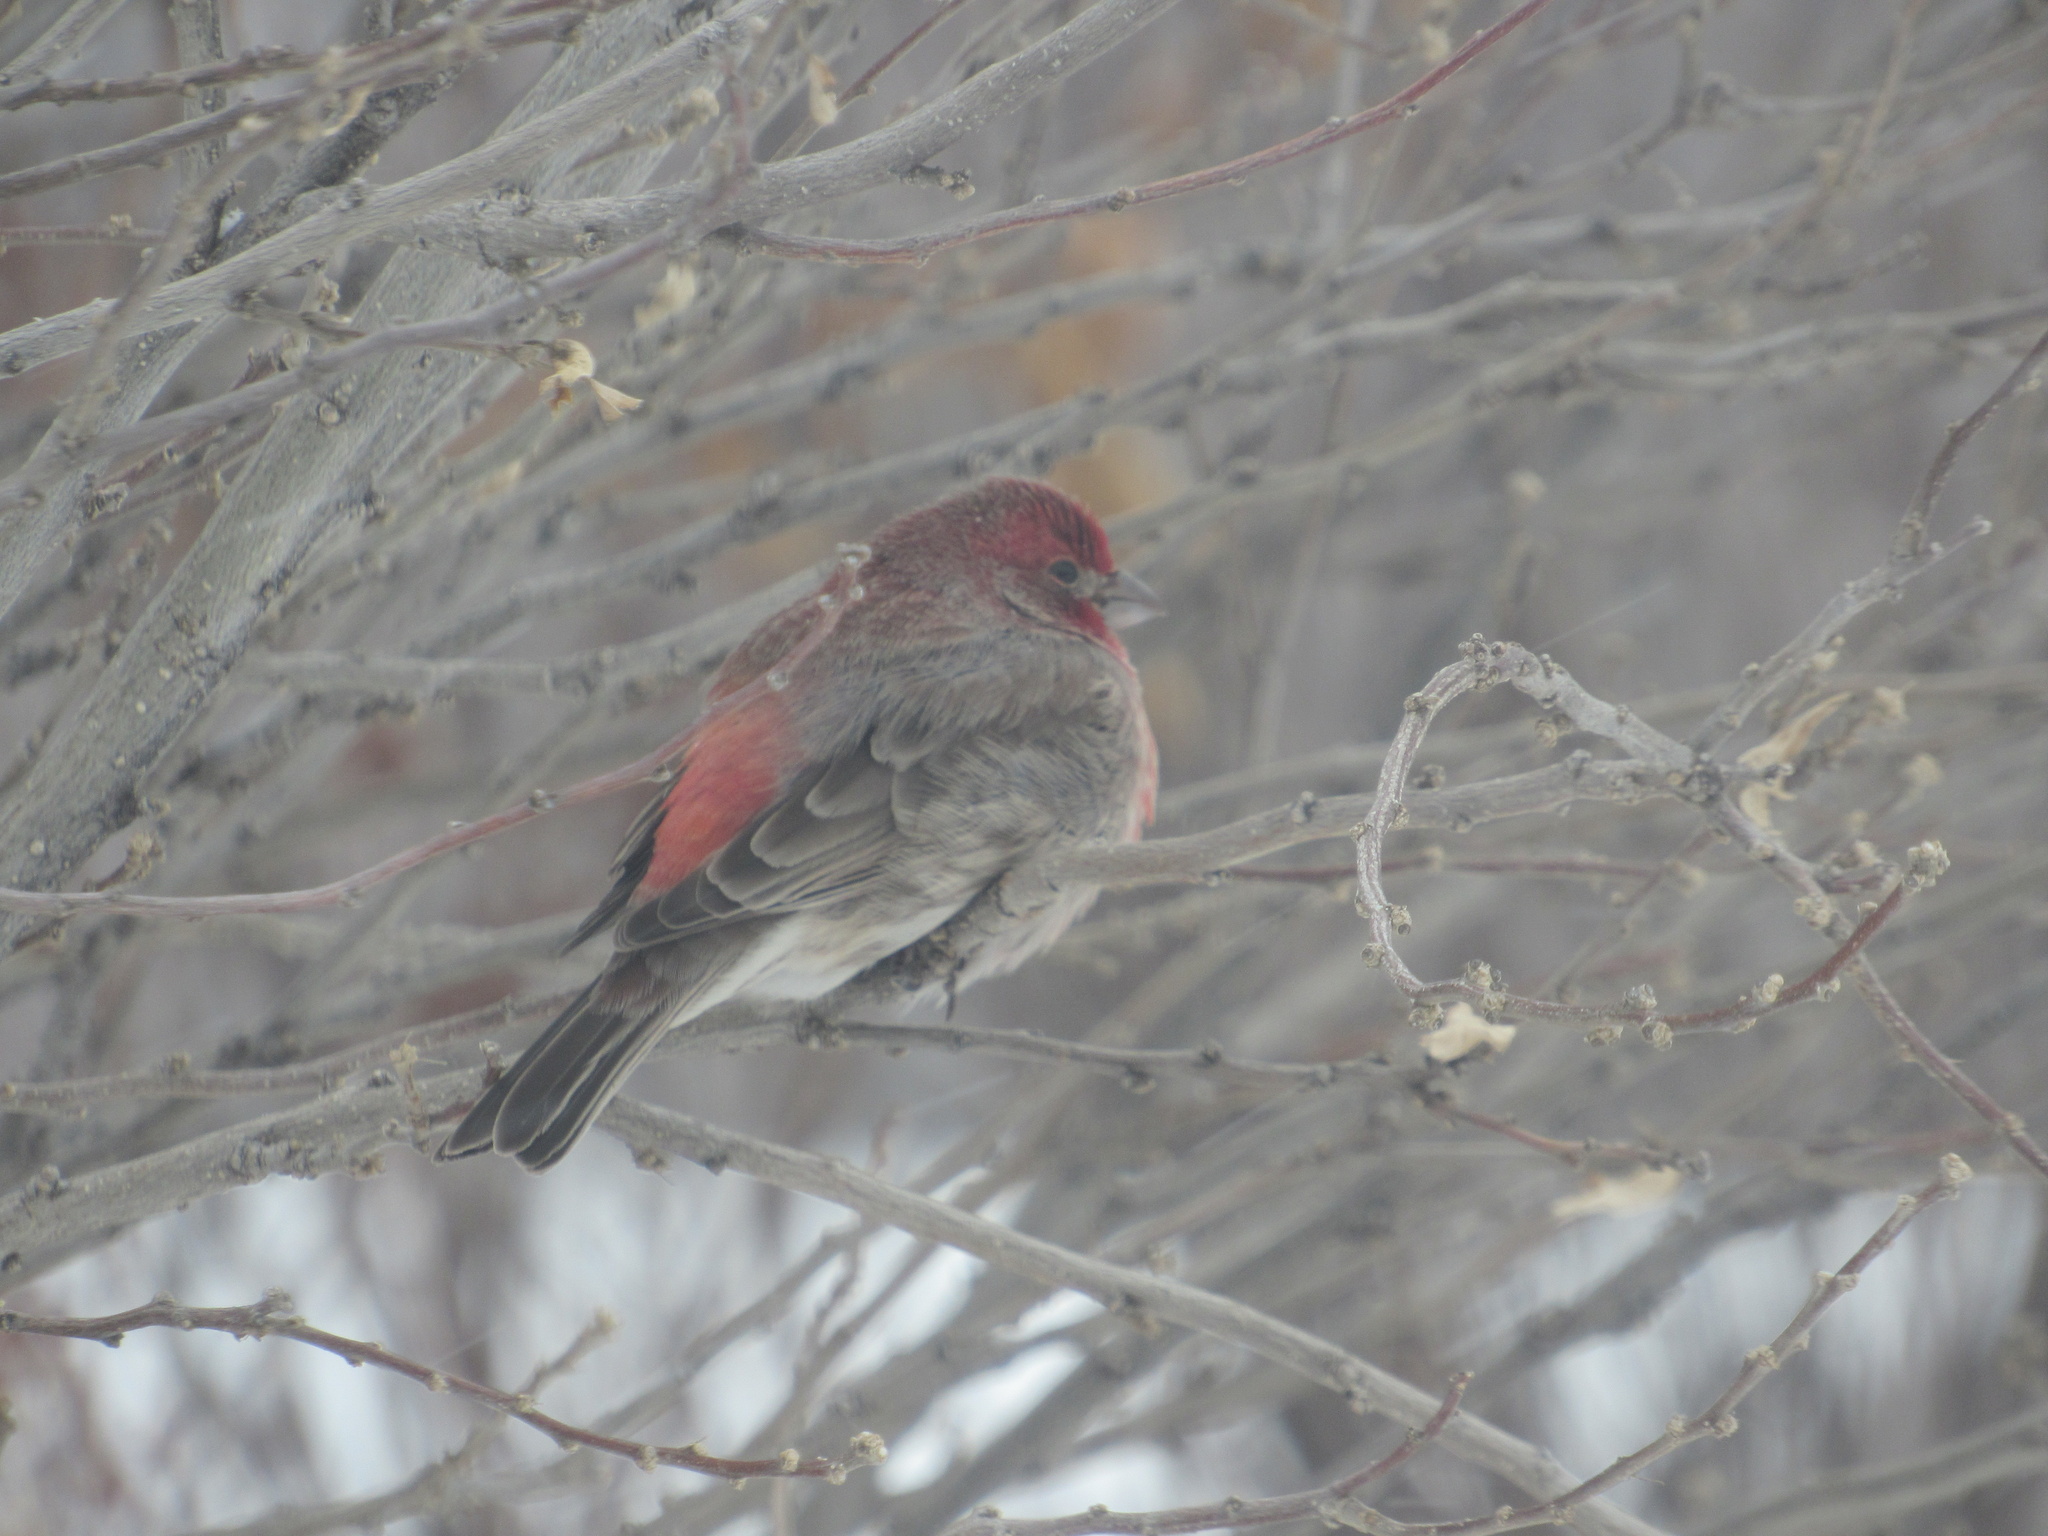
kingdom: Animalia
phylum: Chordata
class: Aves
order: Passeriformes
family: Fringillidae
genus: Haemorhous
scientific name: Haemorhous mexicanus
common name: House finch
